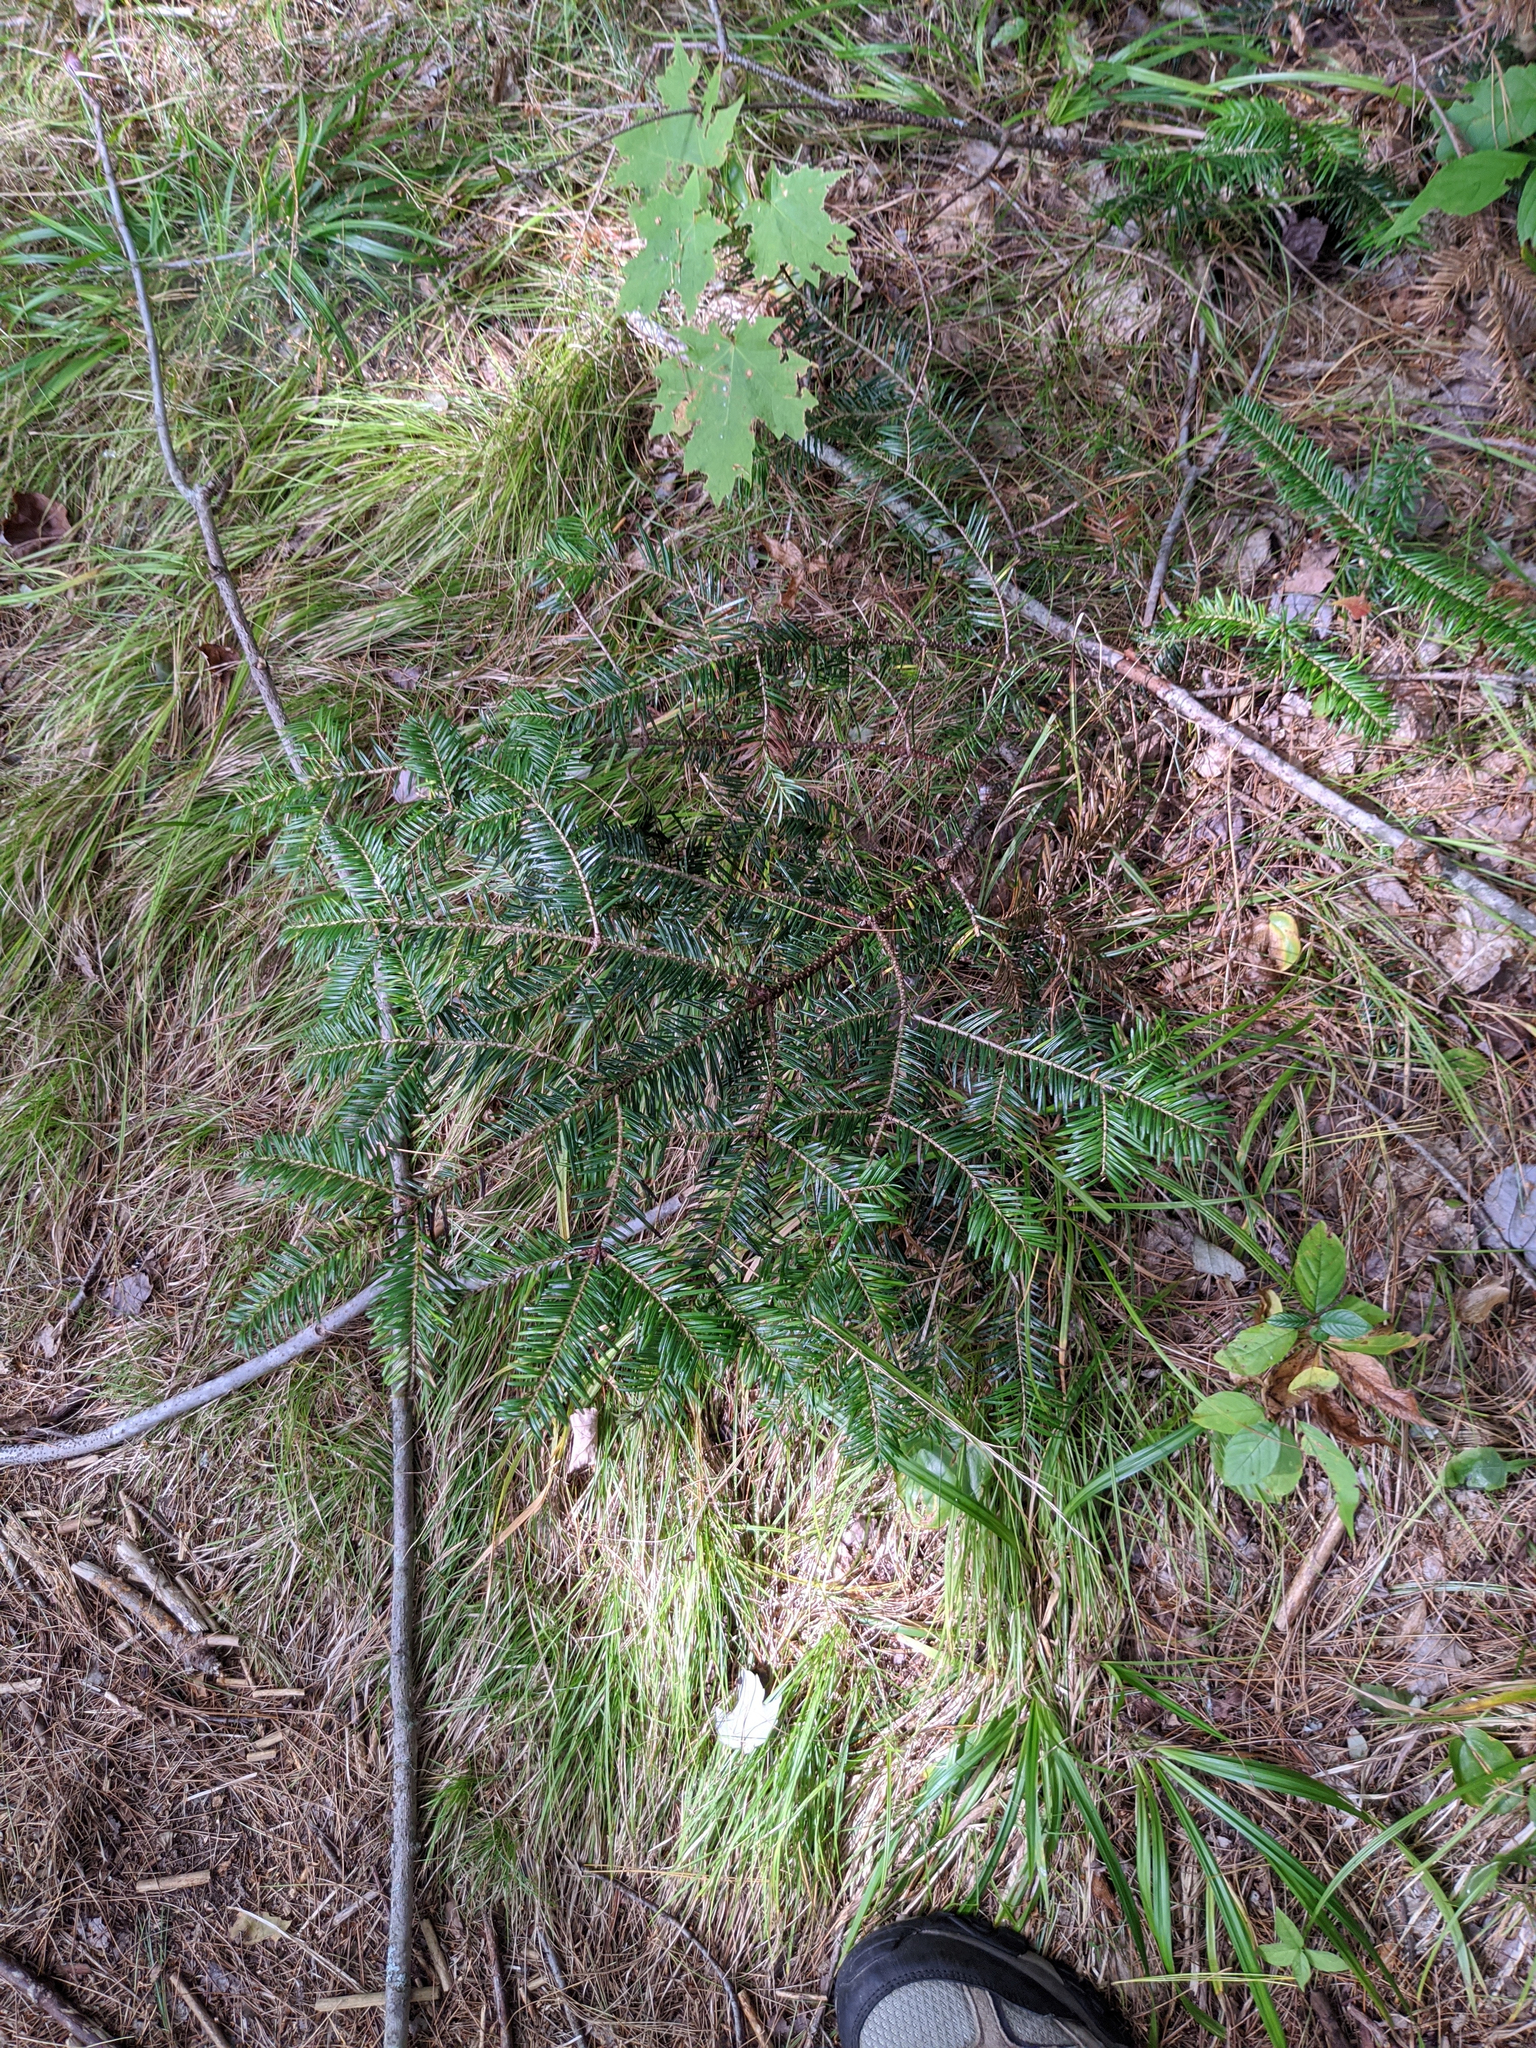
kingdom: Plantae
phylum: Tracheophyta
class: Pinopsida
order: Pinales
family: Pinaceae
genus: Abies
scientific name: Abies balsamea
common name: Balsam fir
